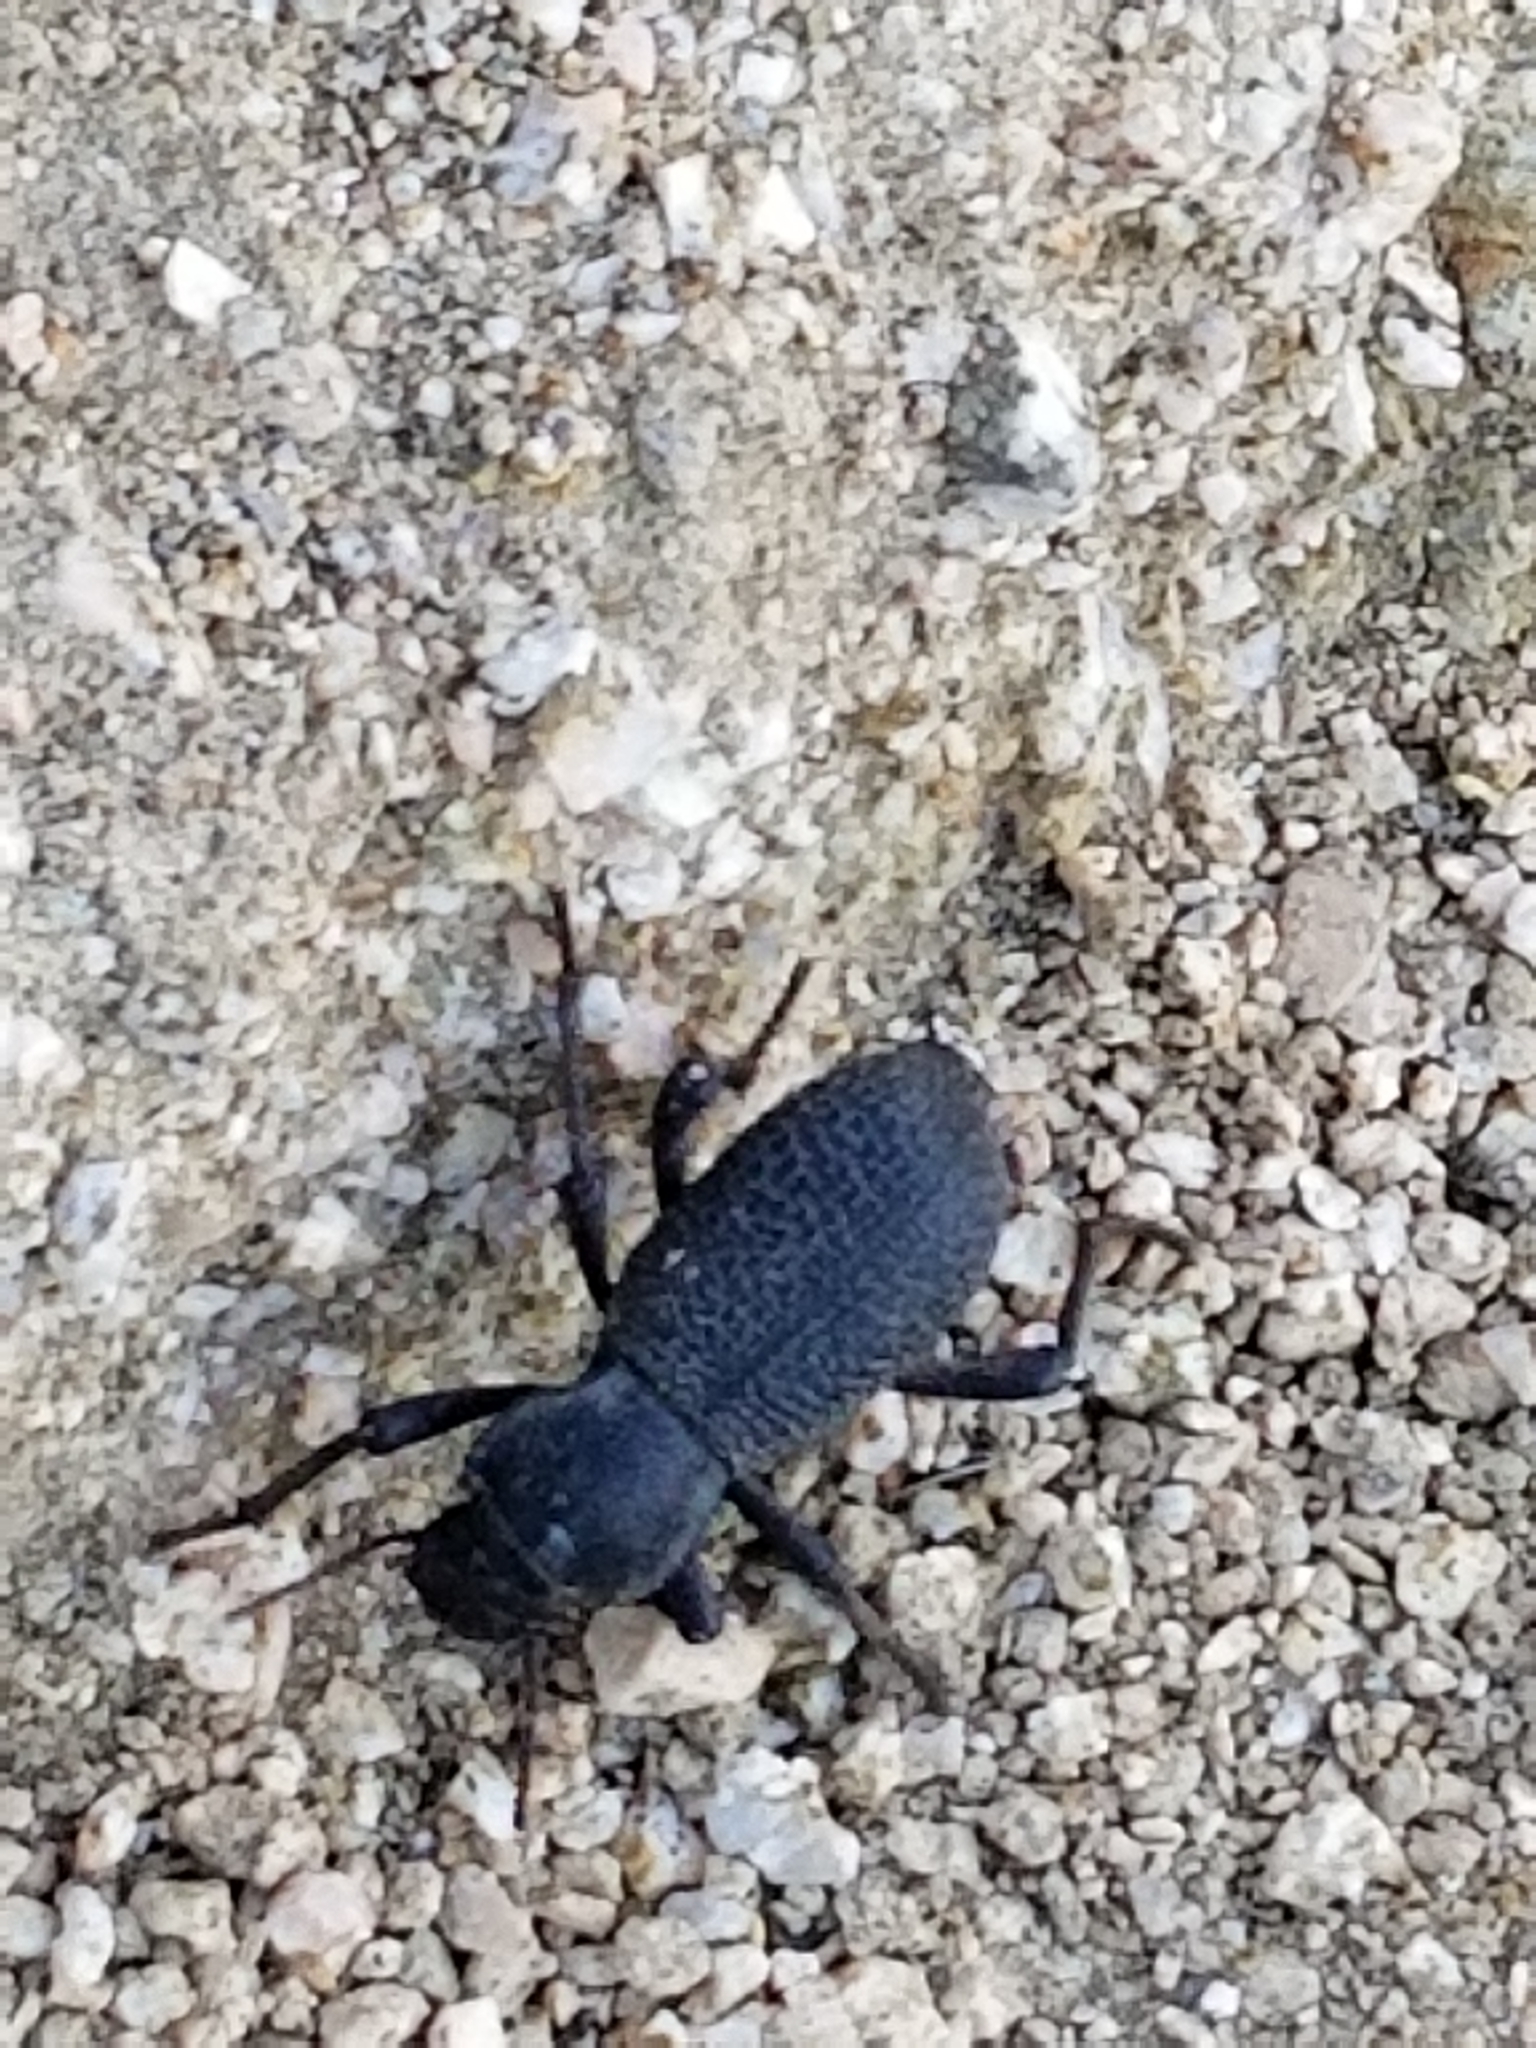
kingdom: Animalia
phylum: Arthropoda
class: Insecta
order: Coleoptera
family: Tenebrionidae
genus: Cryptoglossa
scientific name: Cryptoglossa muricata
